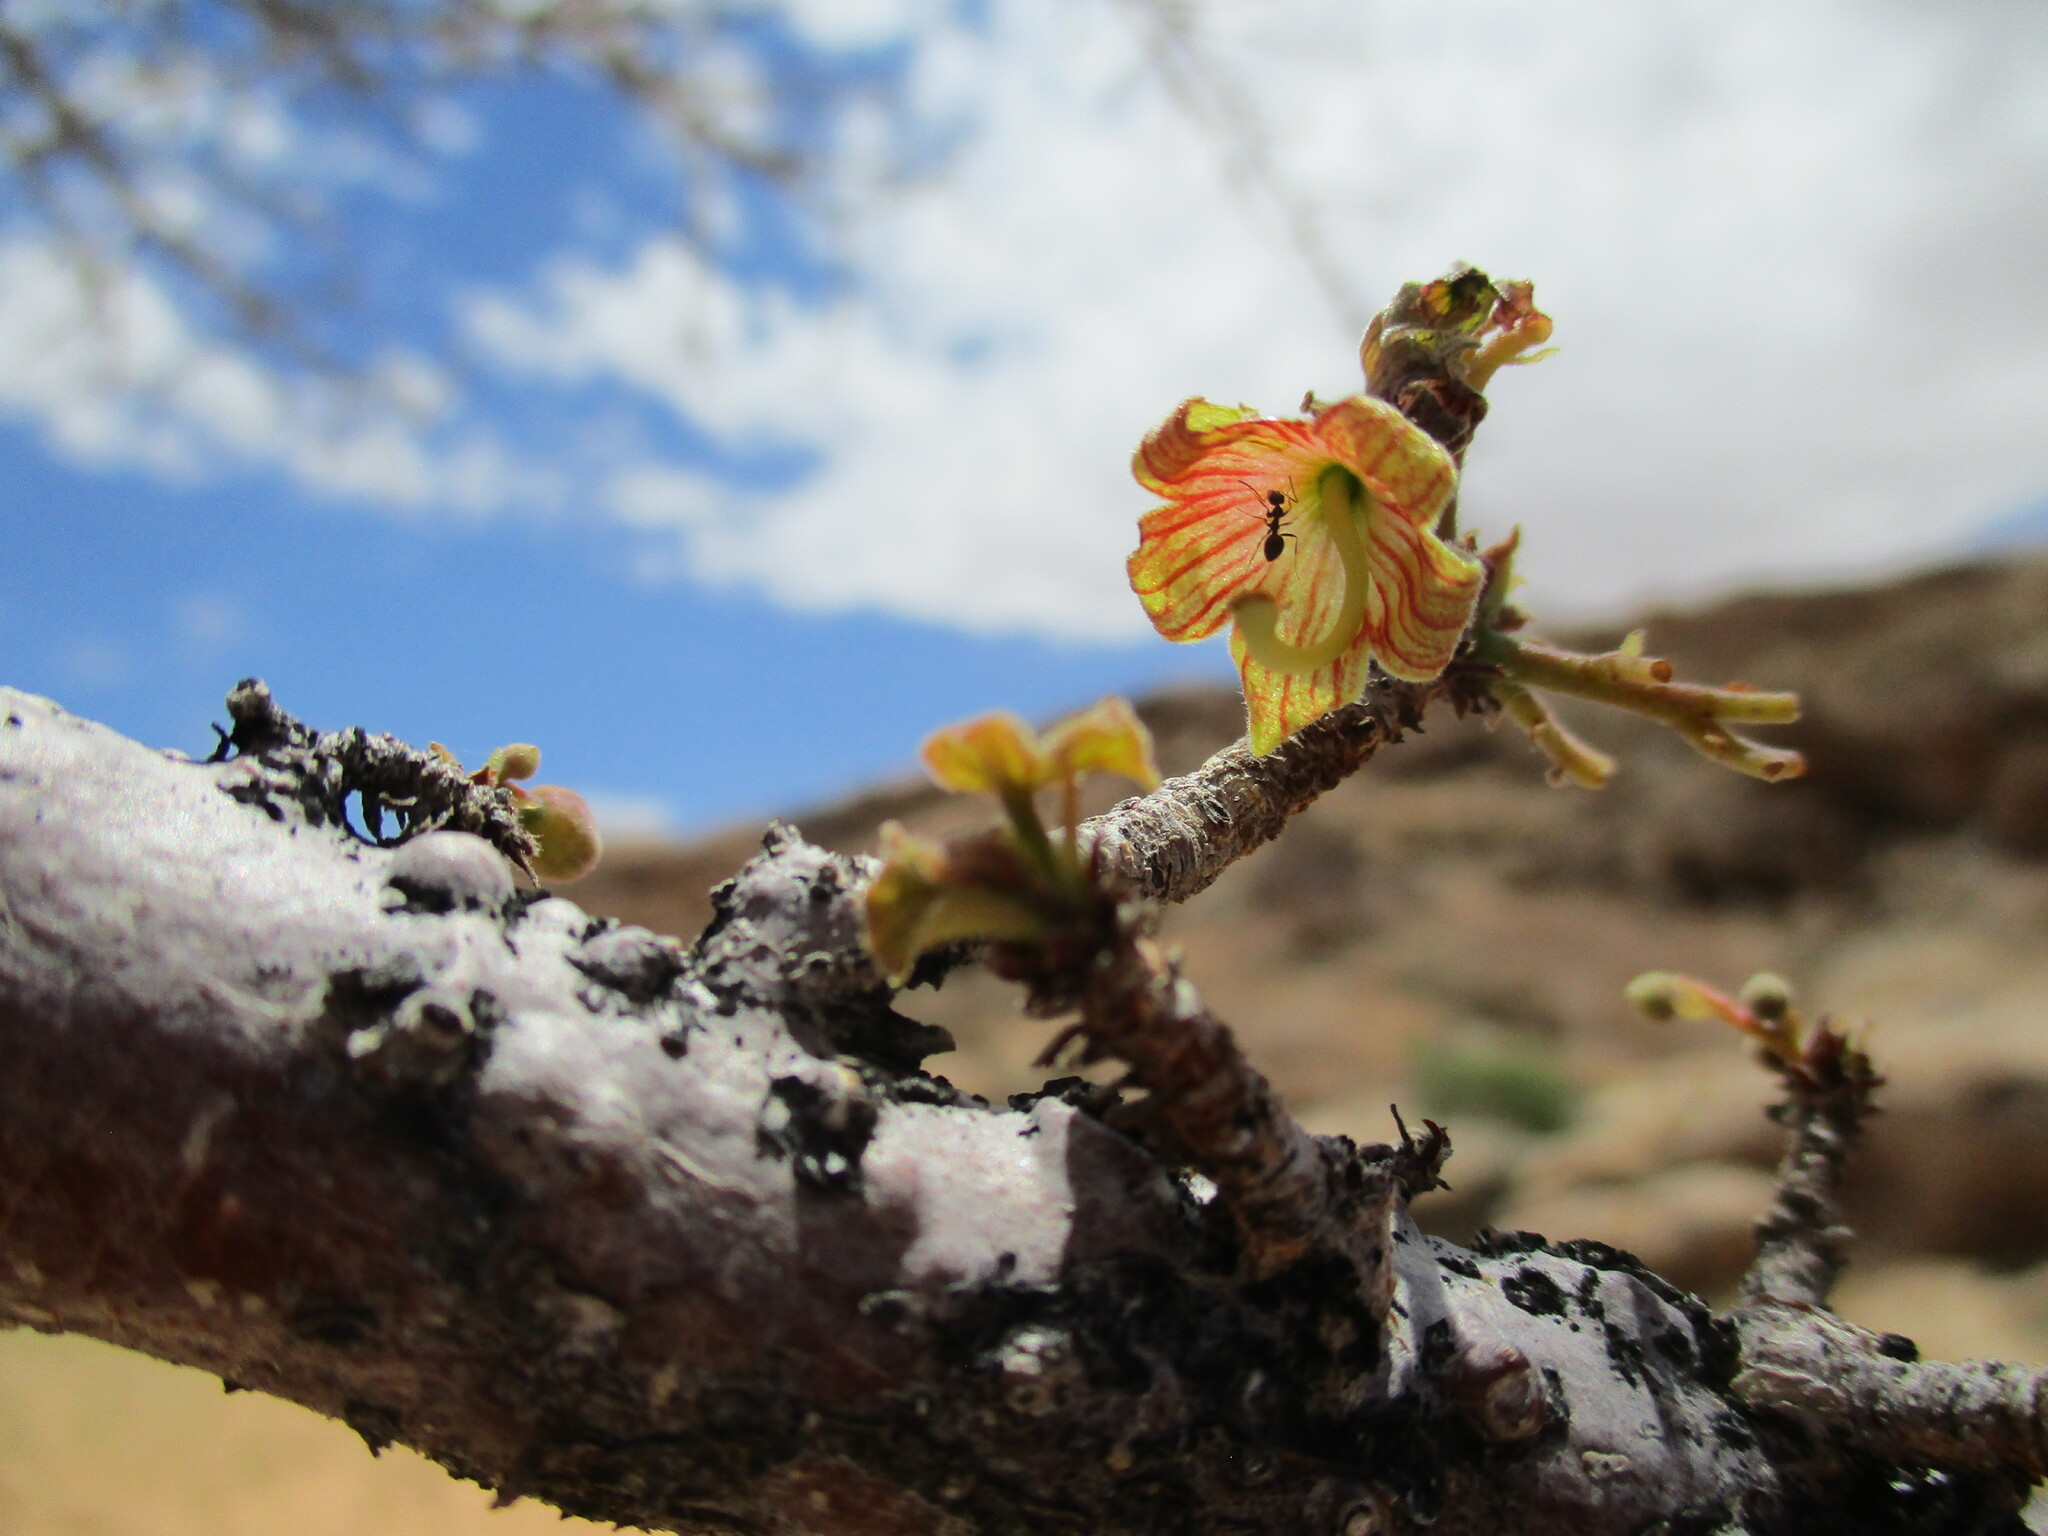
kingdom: Plantae
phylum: Tracheophyta
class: Magnoliopsida
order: Malvales
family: Malvaceae
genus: Sterculia
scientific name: Sterculia africana
